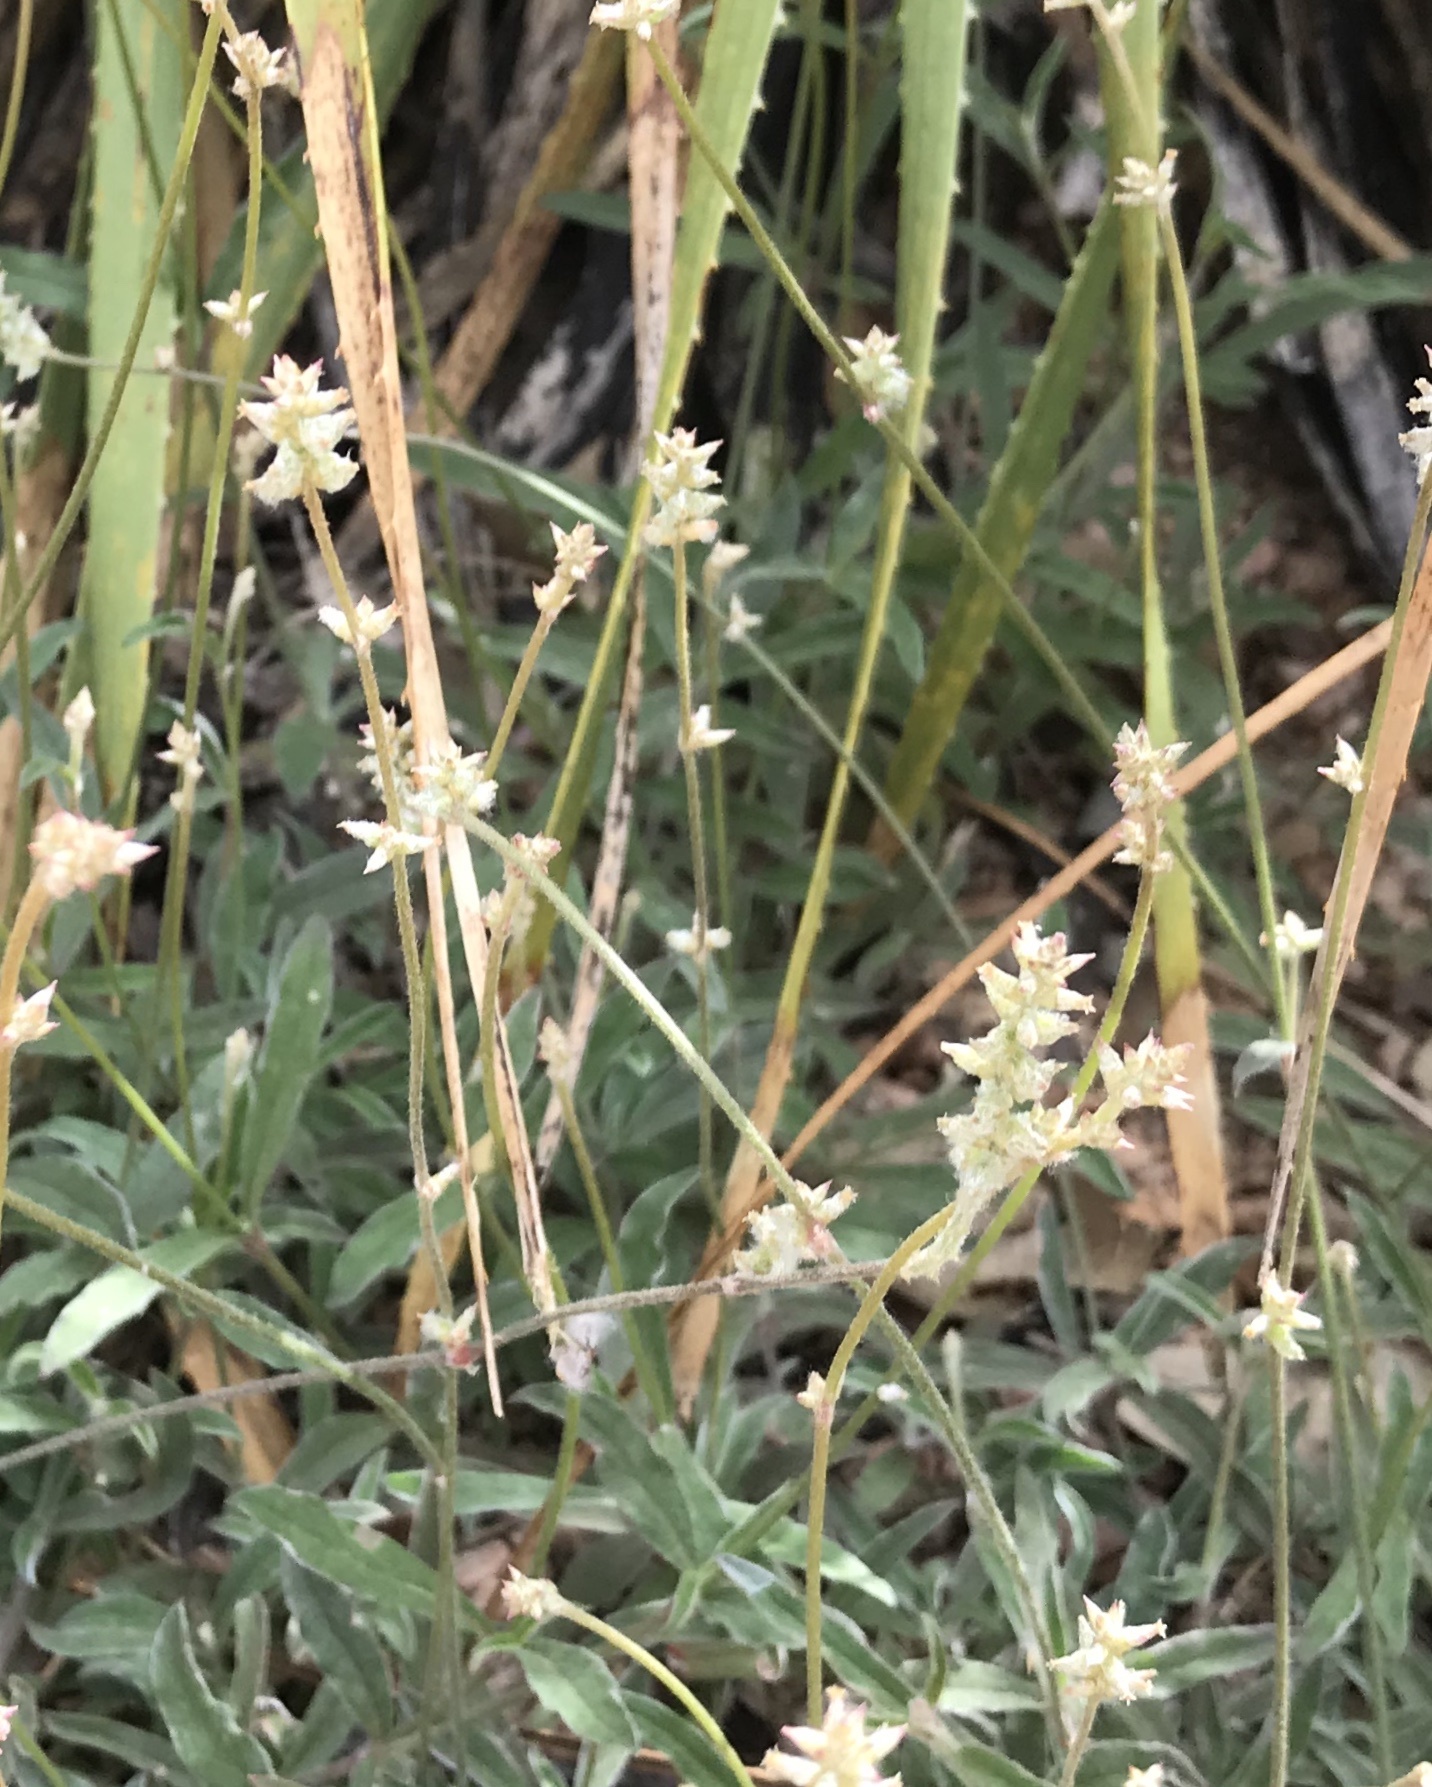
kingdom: Plantae
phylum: Tracheophyta
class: Magnoliopsida
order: Caryophyllales
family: Amaranthaceae
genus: Froelichia
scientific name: Froelichia gracilis
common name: Slender cottonweed
